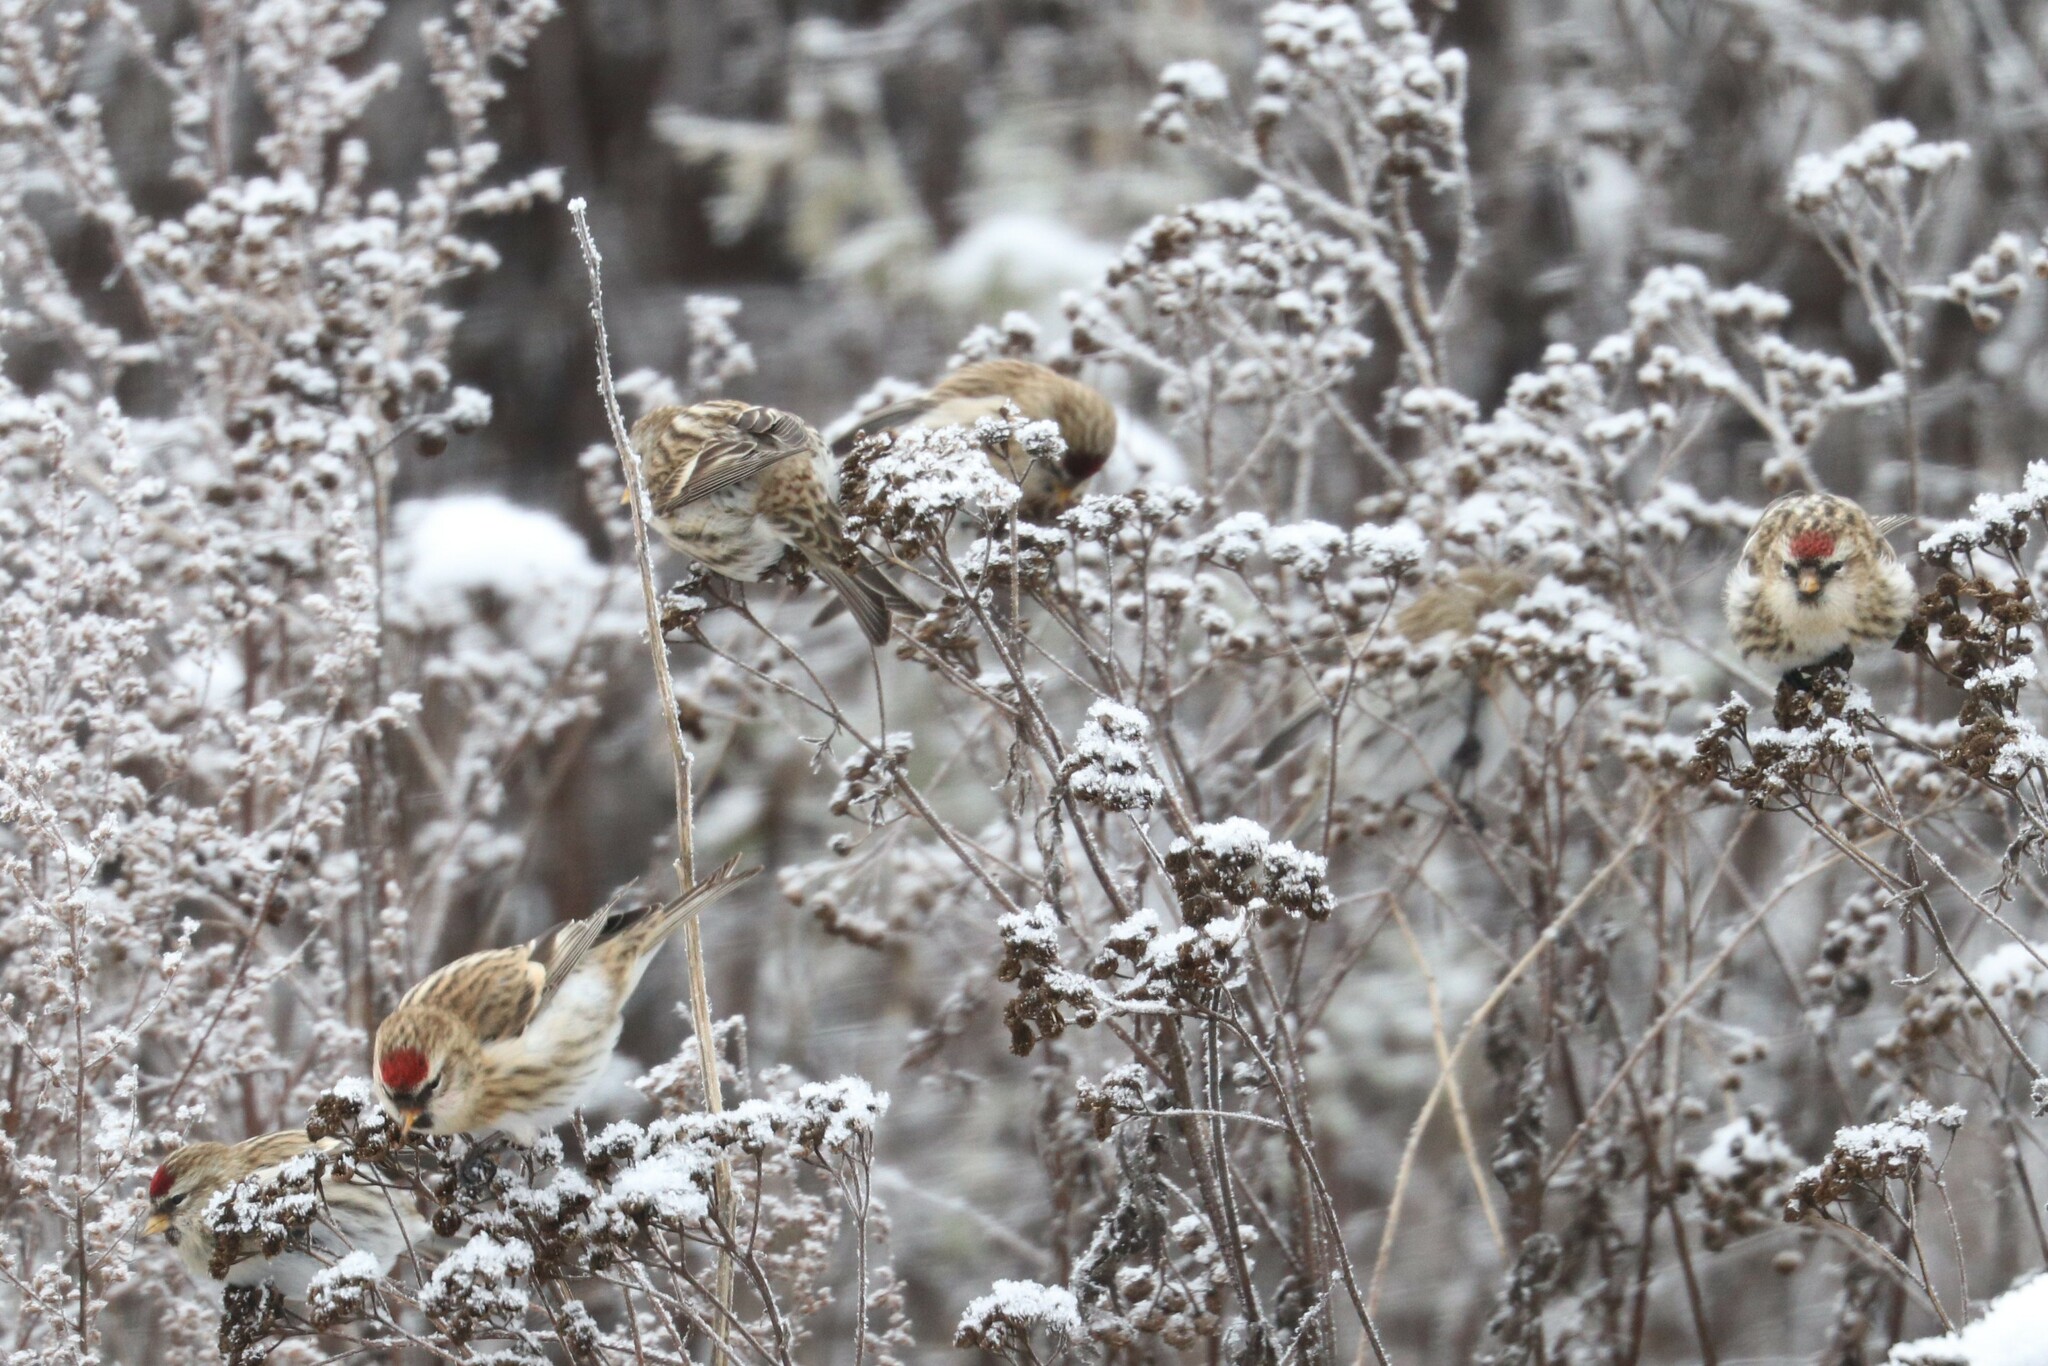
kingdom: Animalia
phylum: Chordata
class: Aves
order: Passeriformes
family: Fringillidae
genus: Acanthis
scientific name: Acanthis flammea
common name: Common redpoll
